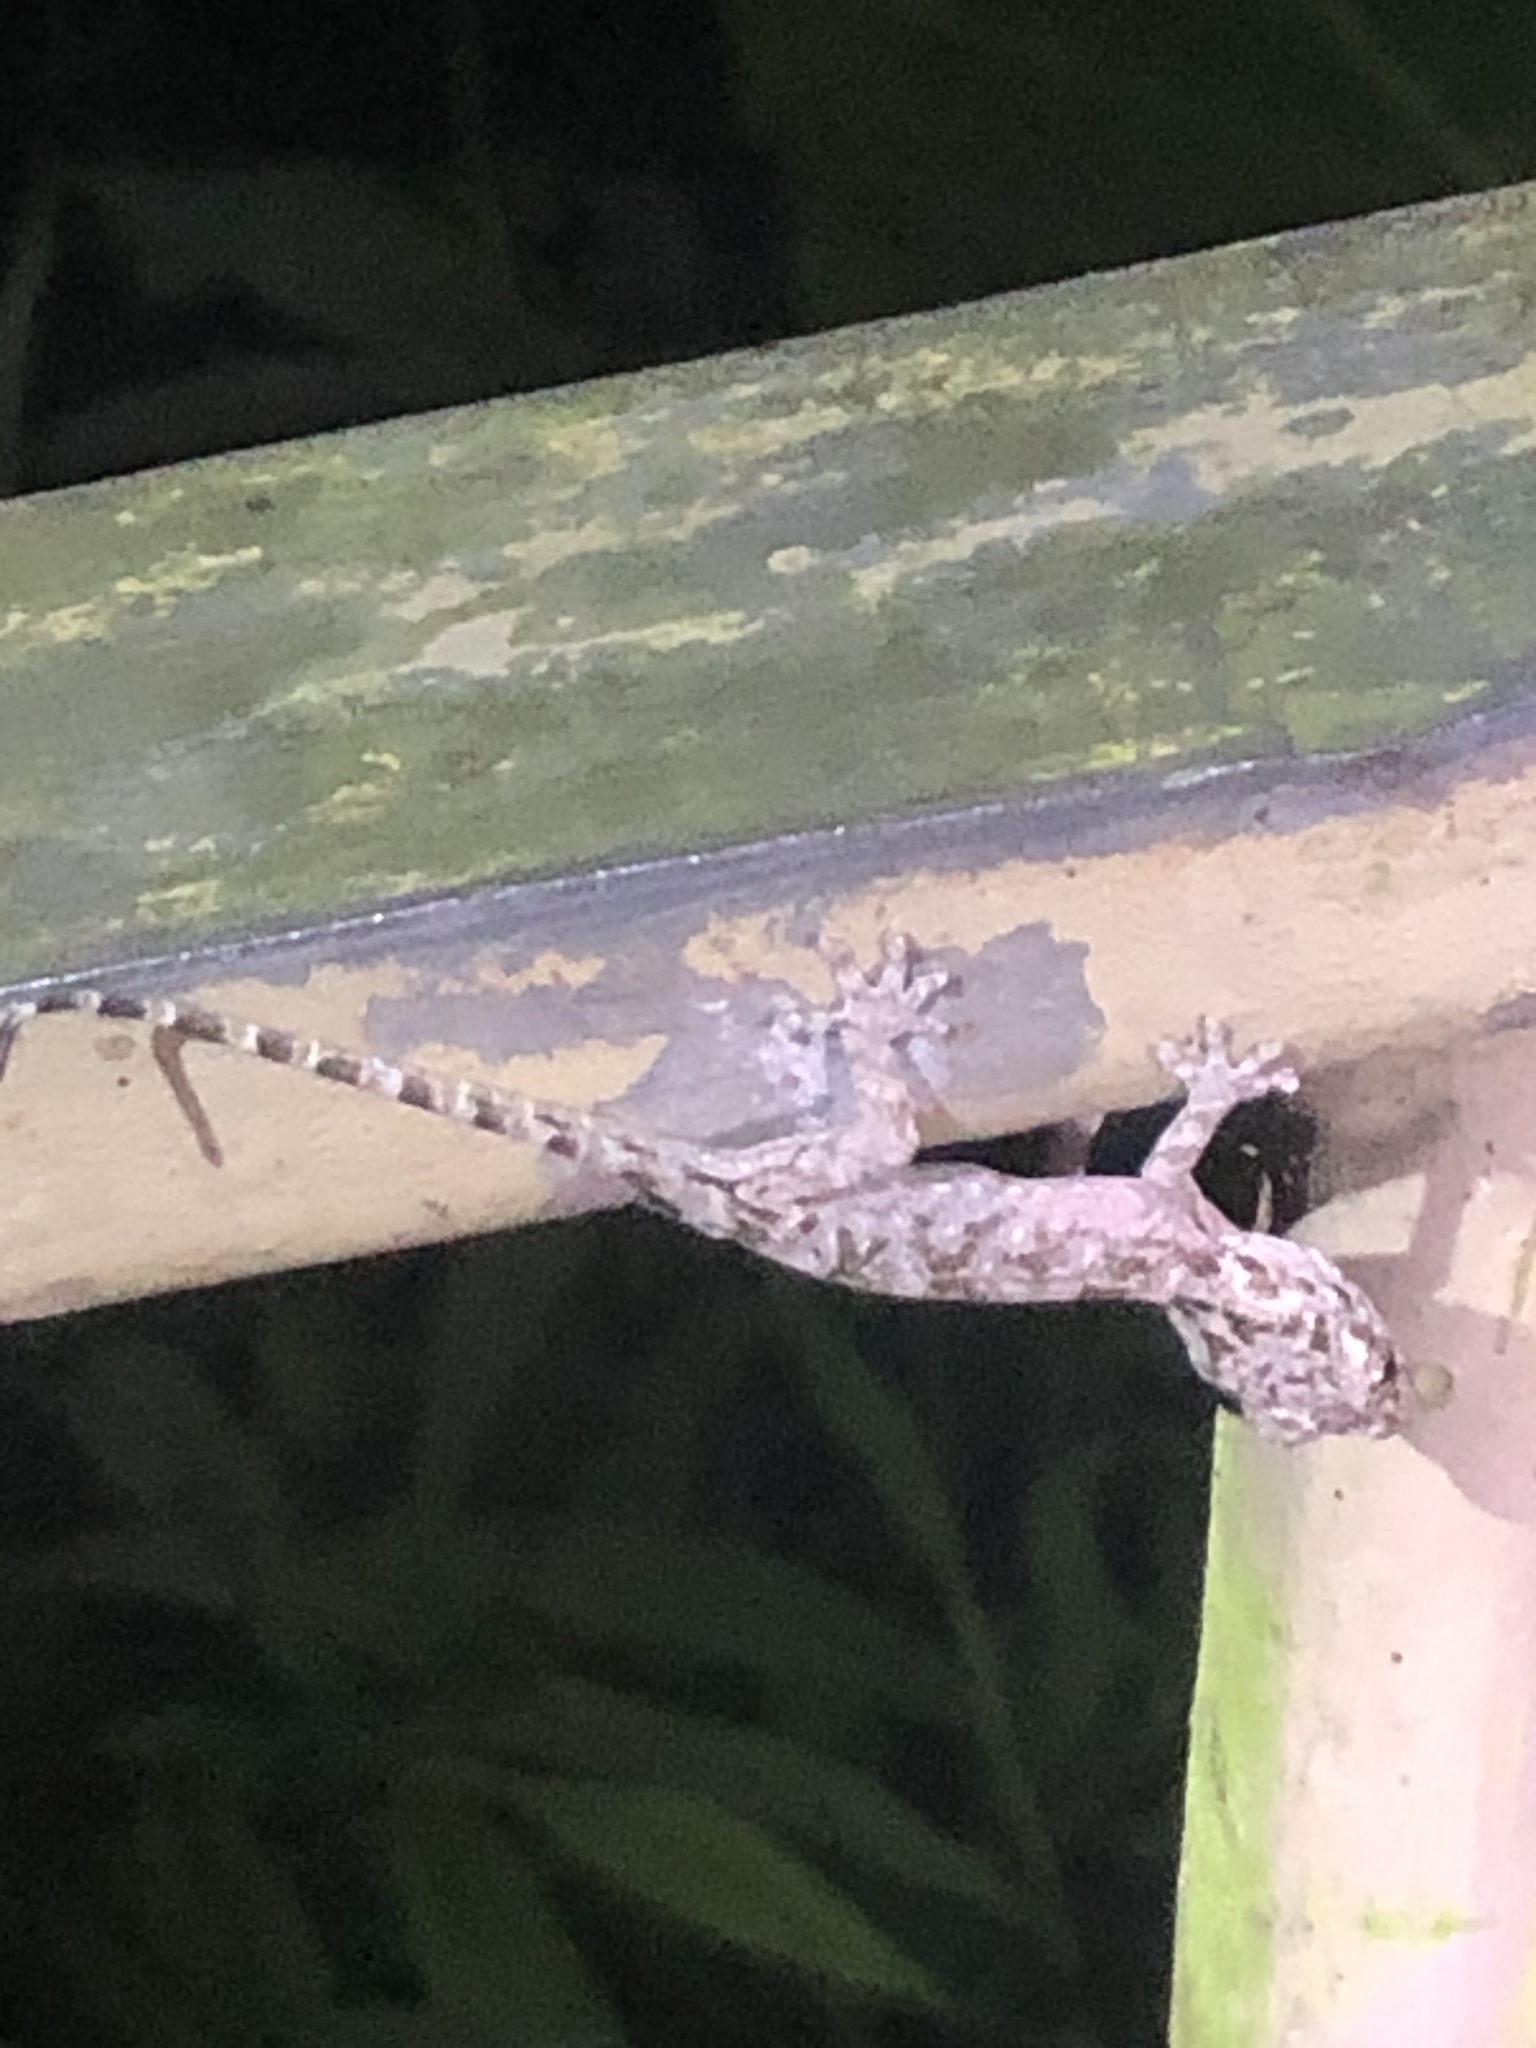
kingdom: Animalia
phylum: Chordata
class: Squamata
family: Gekkonidae
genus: Gekko
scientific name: Gekko chinensis
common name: Gray's chinese gecko
